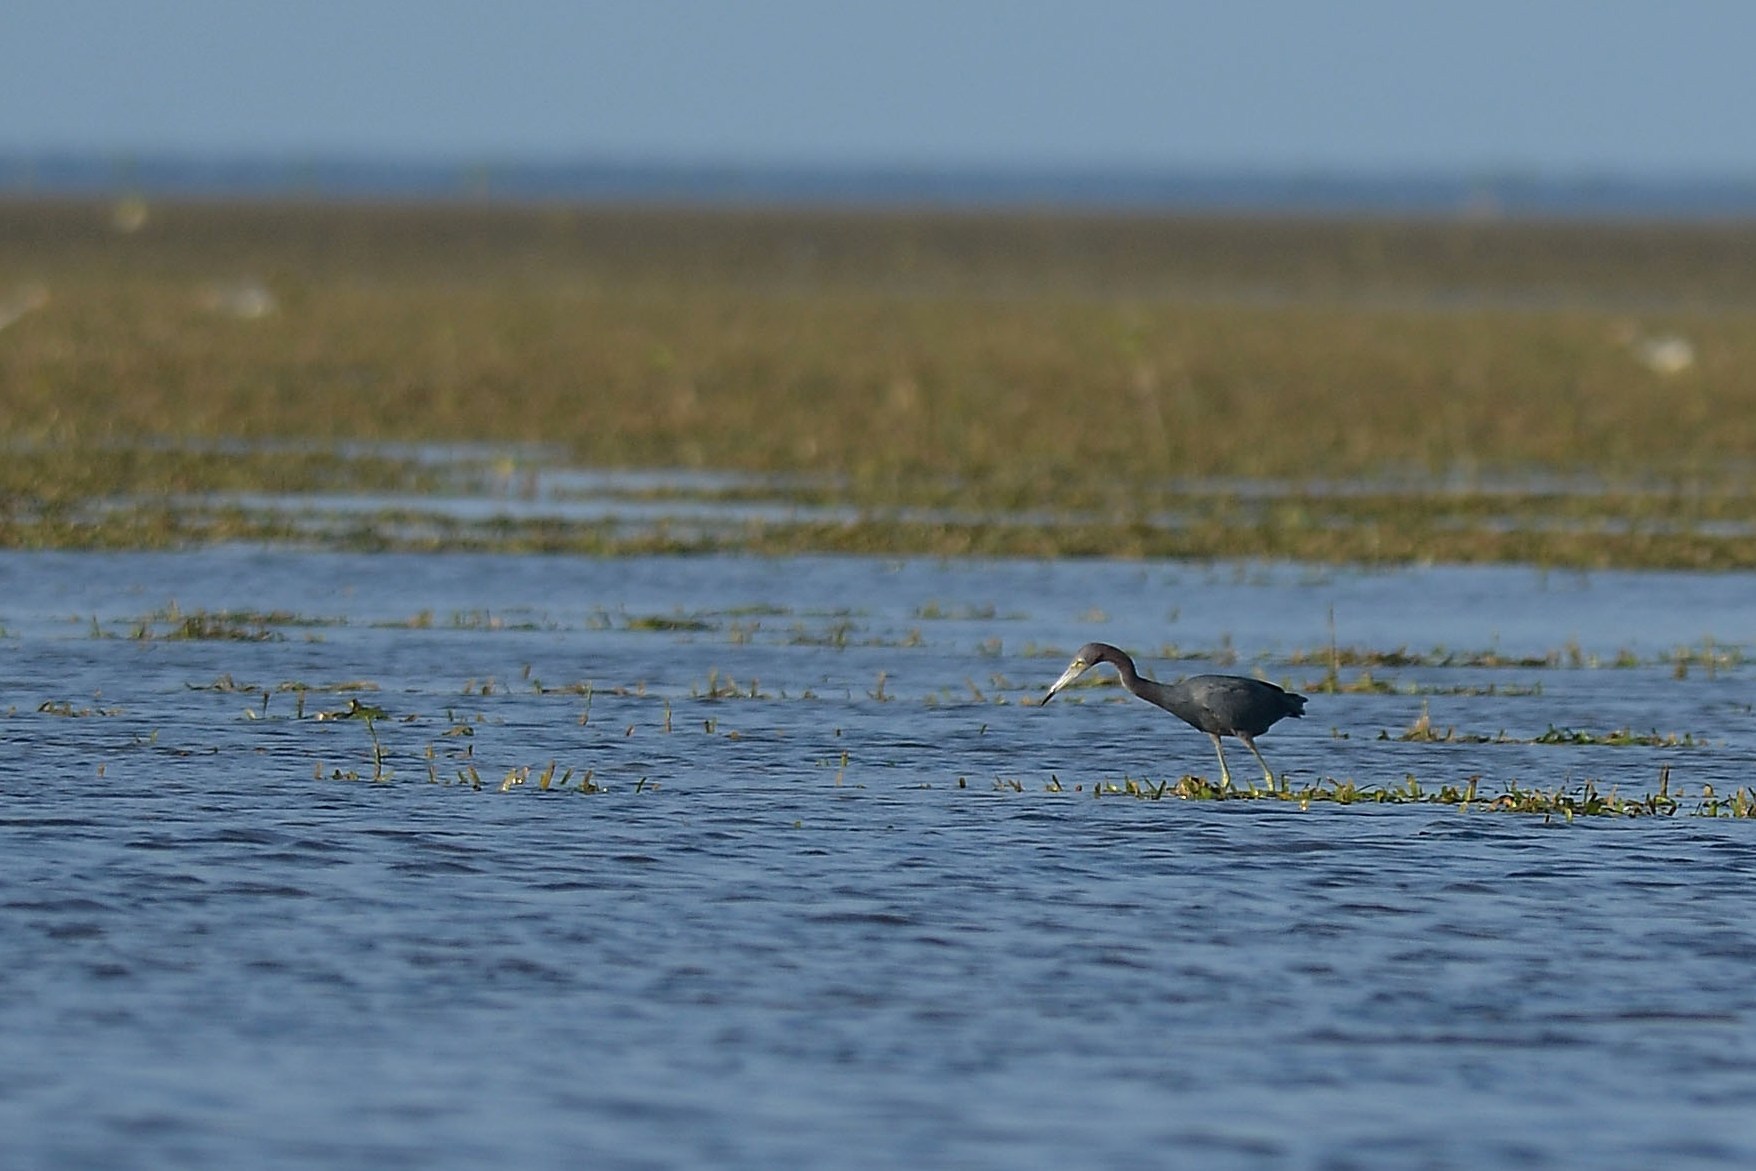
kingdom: Animalia
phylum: Chordata
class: Aves
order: Pelecaniformes
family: Ardeidae
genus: Egretta
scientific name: Egretta caerulea
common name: Little blue heron
